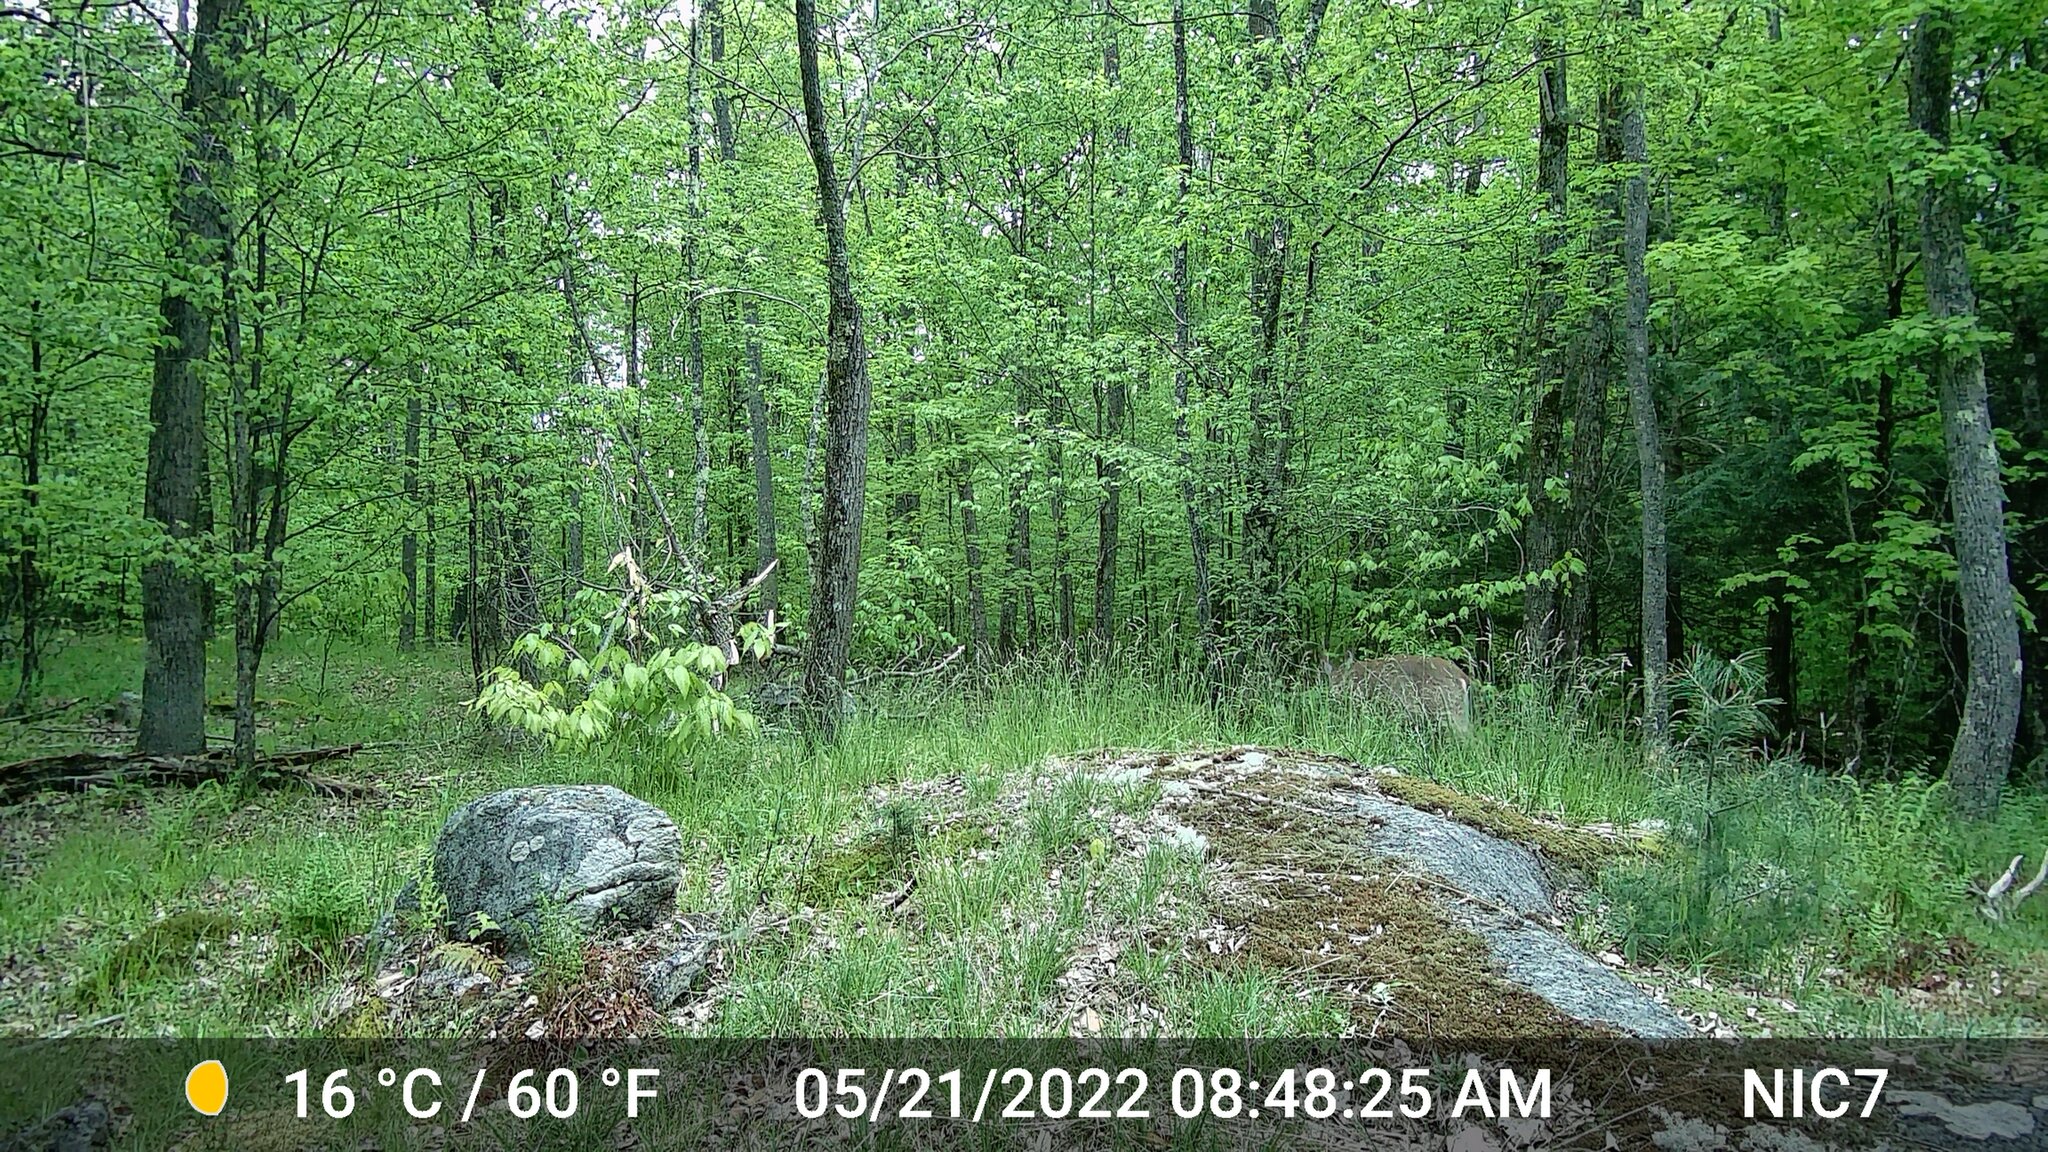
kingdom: Animalia
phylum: Chordata
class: Mammalia
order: Artiodactyla
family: Cervidae
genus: Odocoileus
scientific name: Odocoileus virginianus
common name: White-tailed deer
